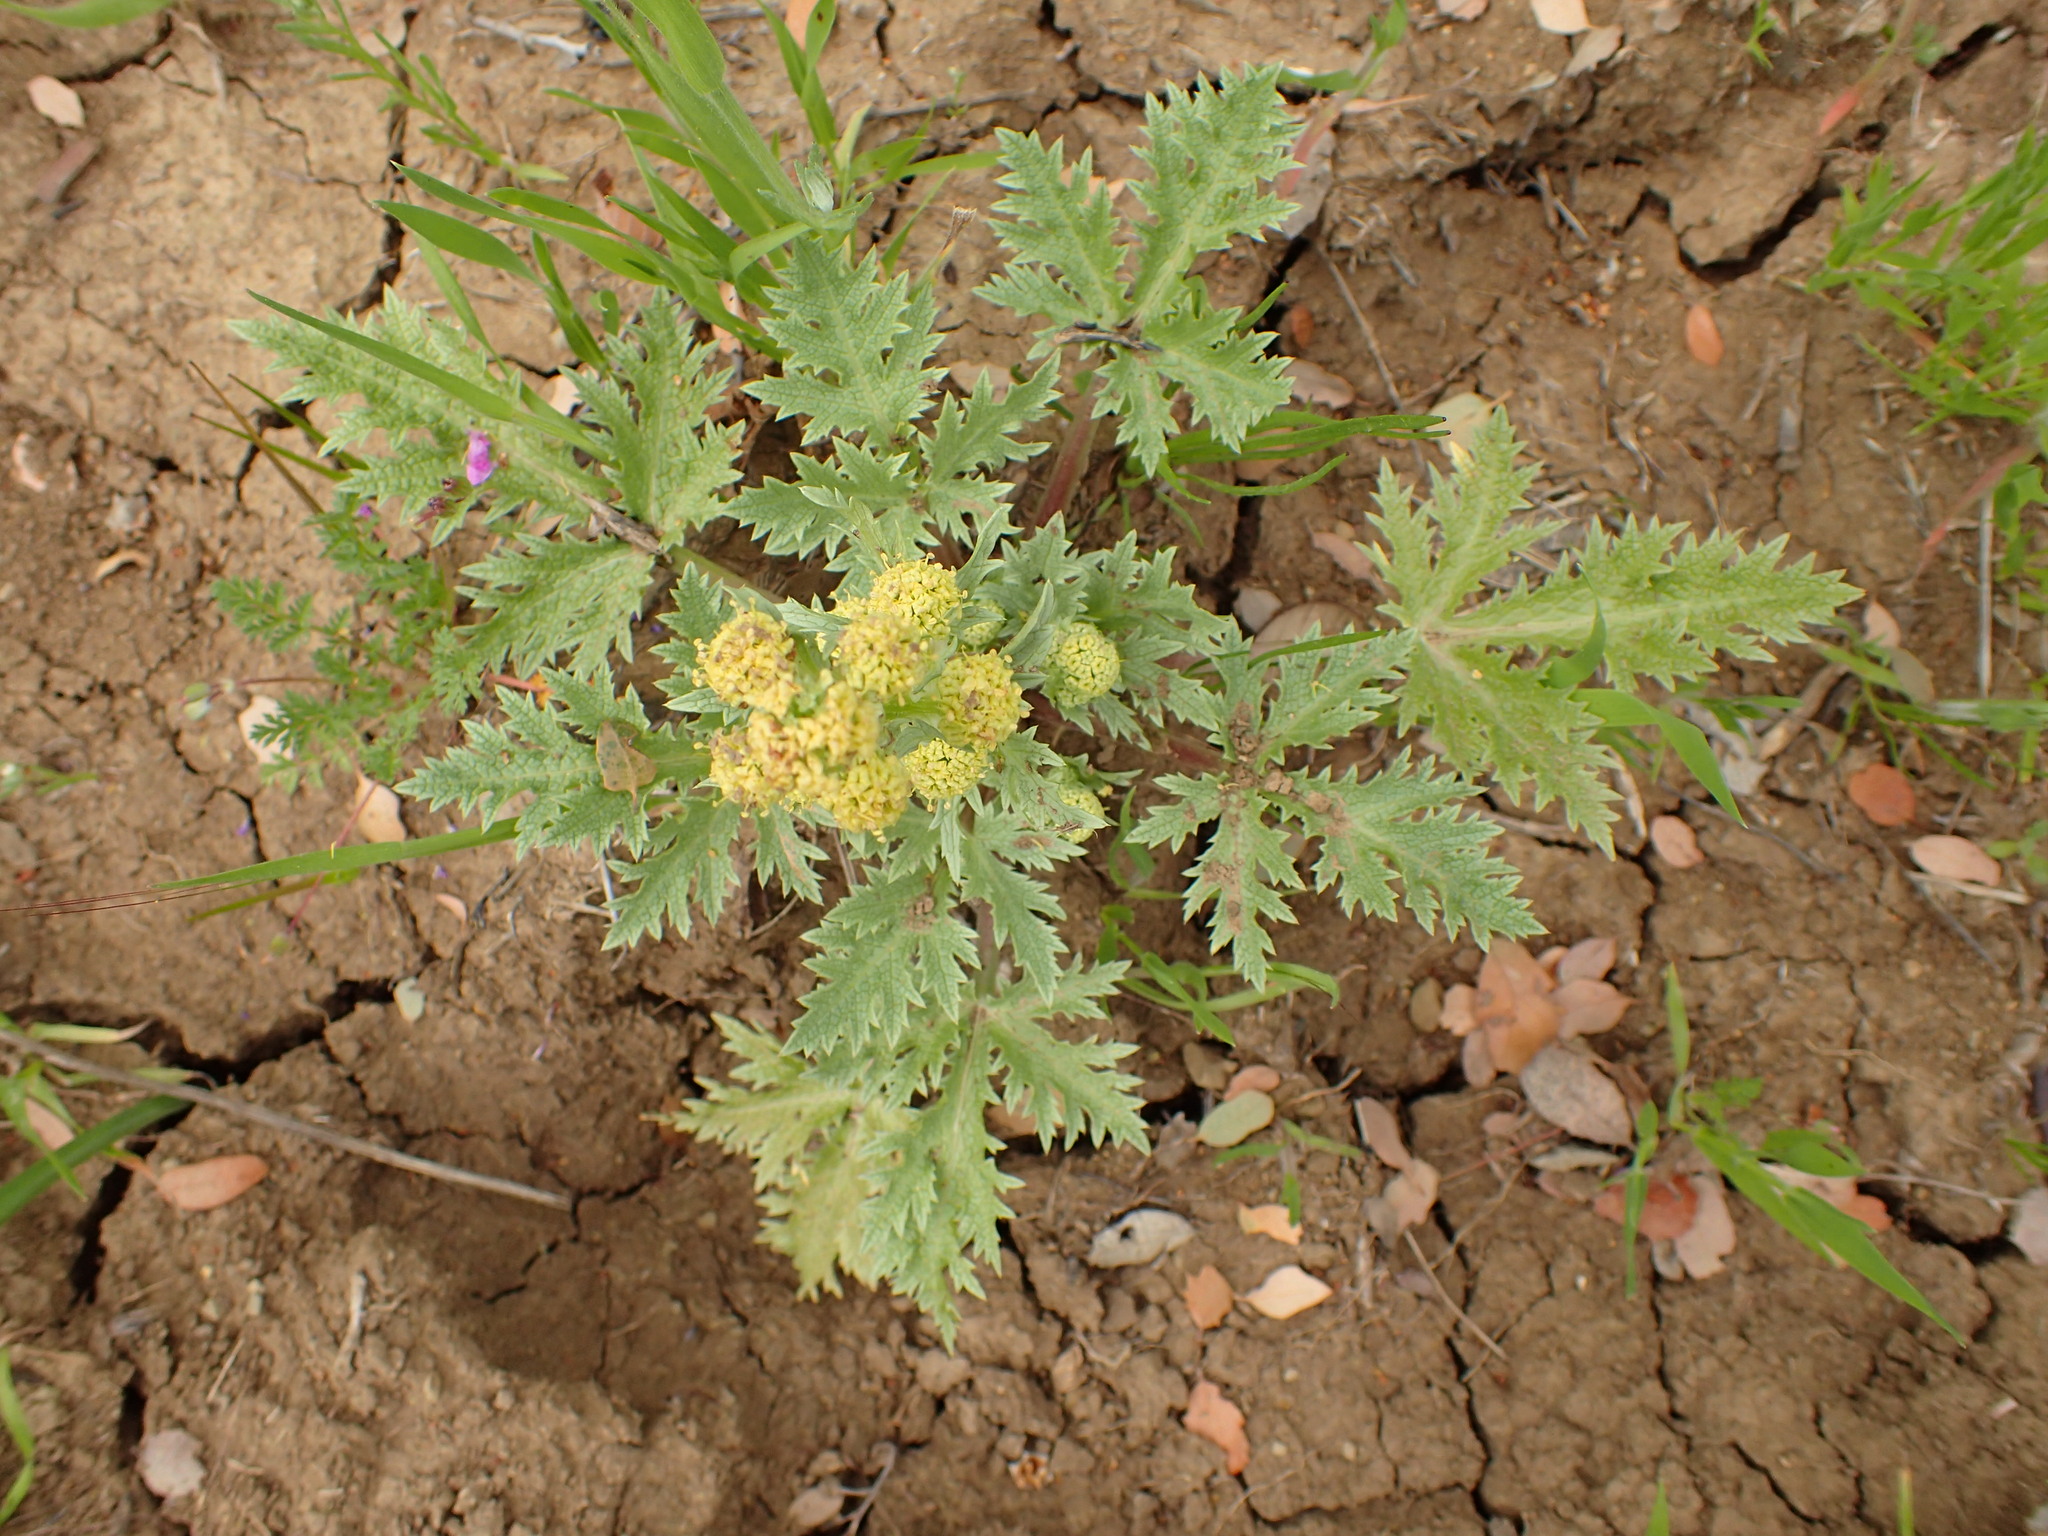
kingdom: Plantae
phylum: Tracheophyta
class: Magnoliopsida
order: Apiales
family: Apiaceae
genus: Sanicula
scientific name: Sanicula arguta
